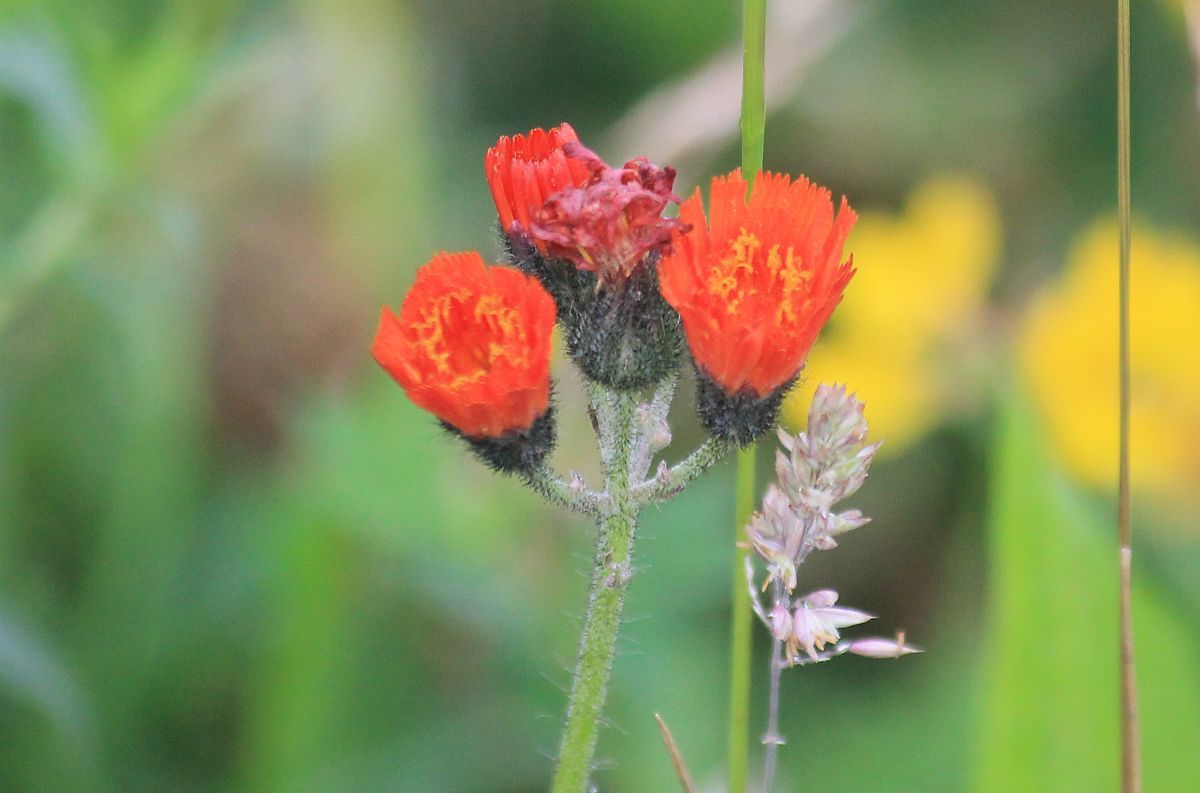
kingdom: Plantae
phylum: Tracheophyta
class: Magnoliopsida
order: Asterales
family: Asteraceae
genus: Pilosella
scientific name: Pilosella aurantiaca
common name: Fox-and-cubs
